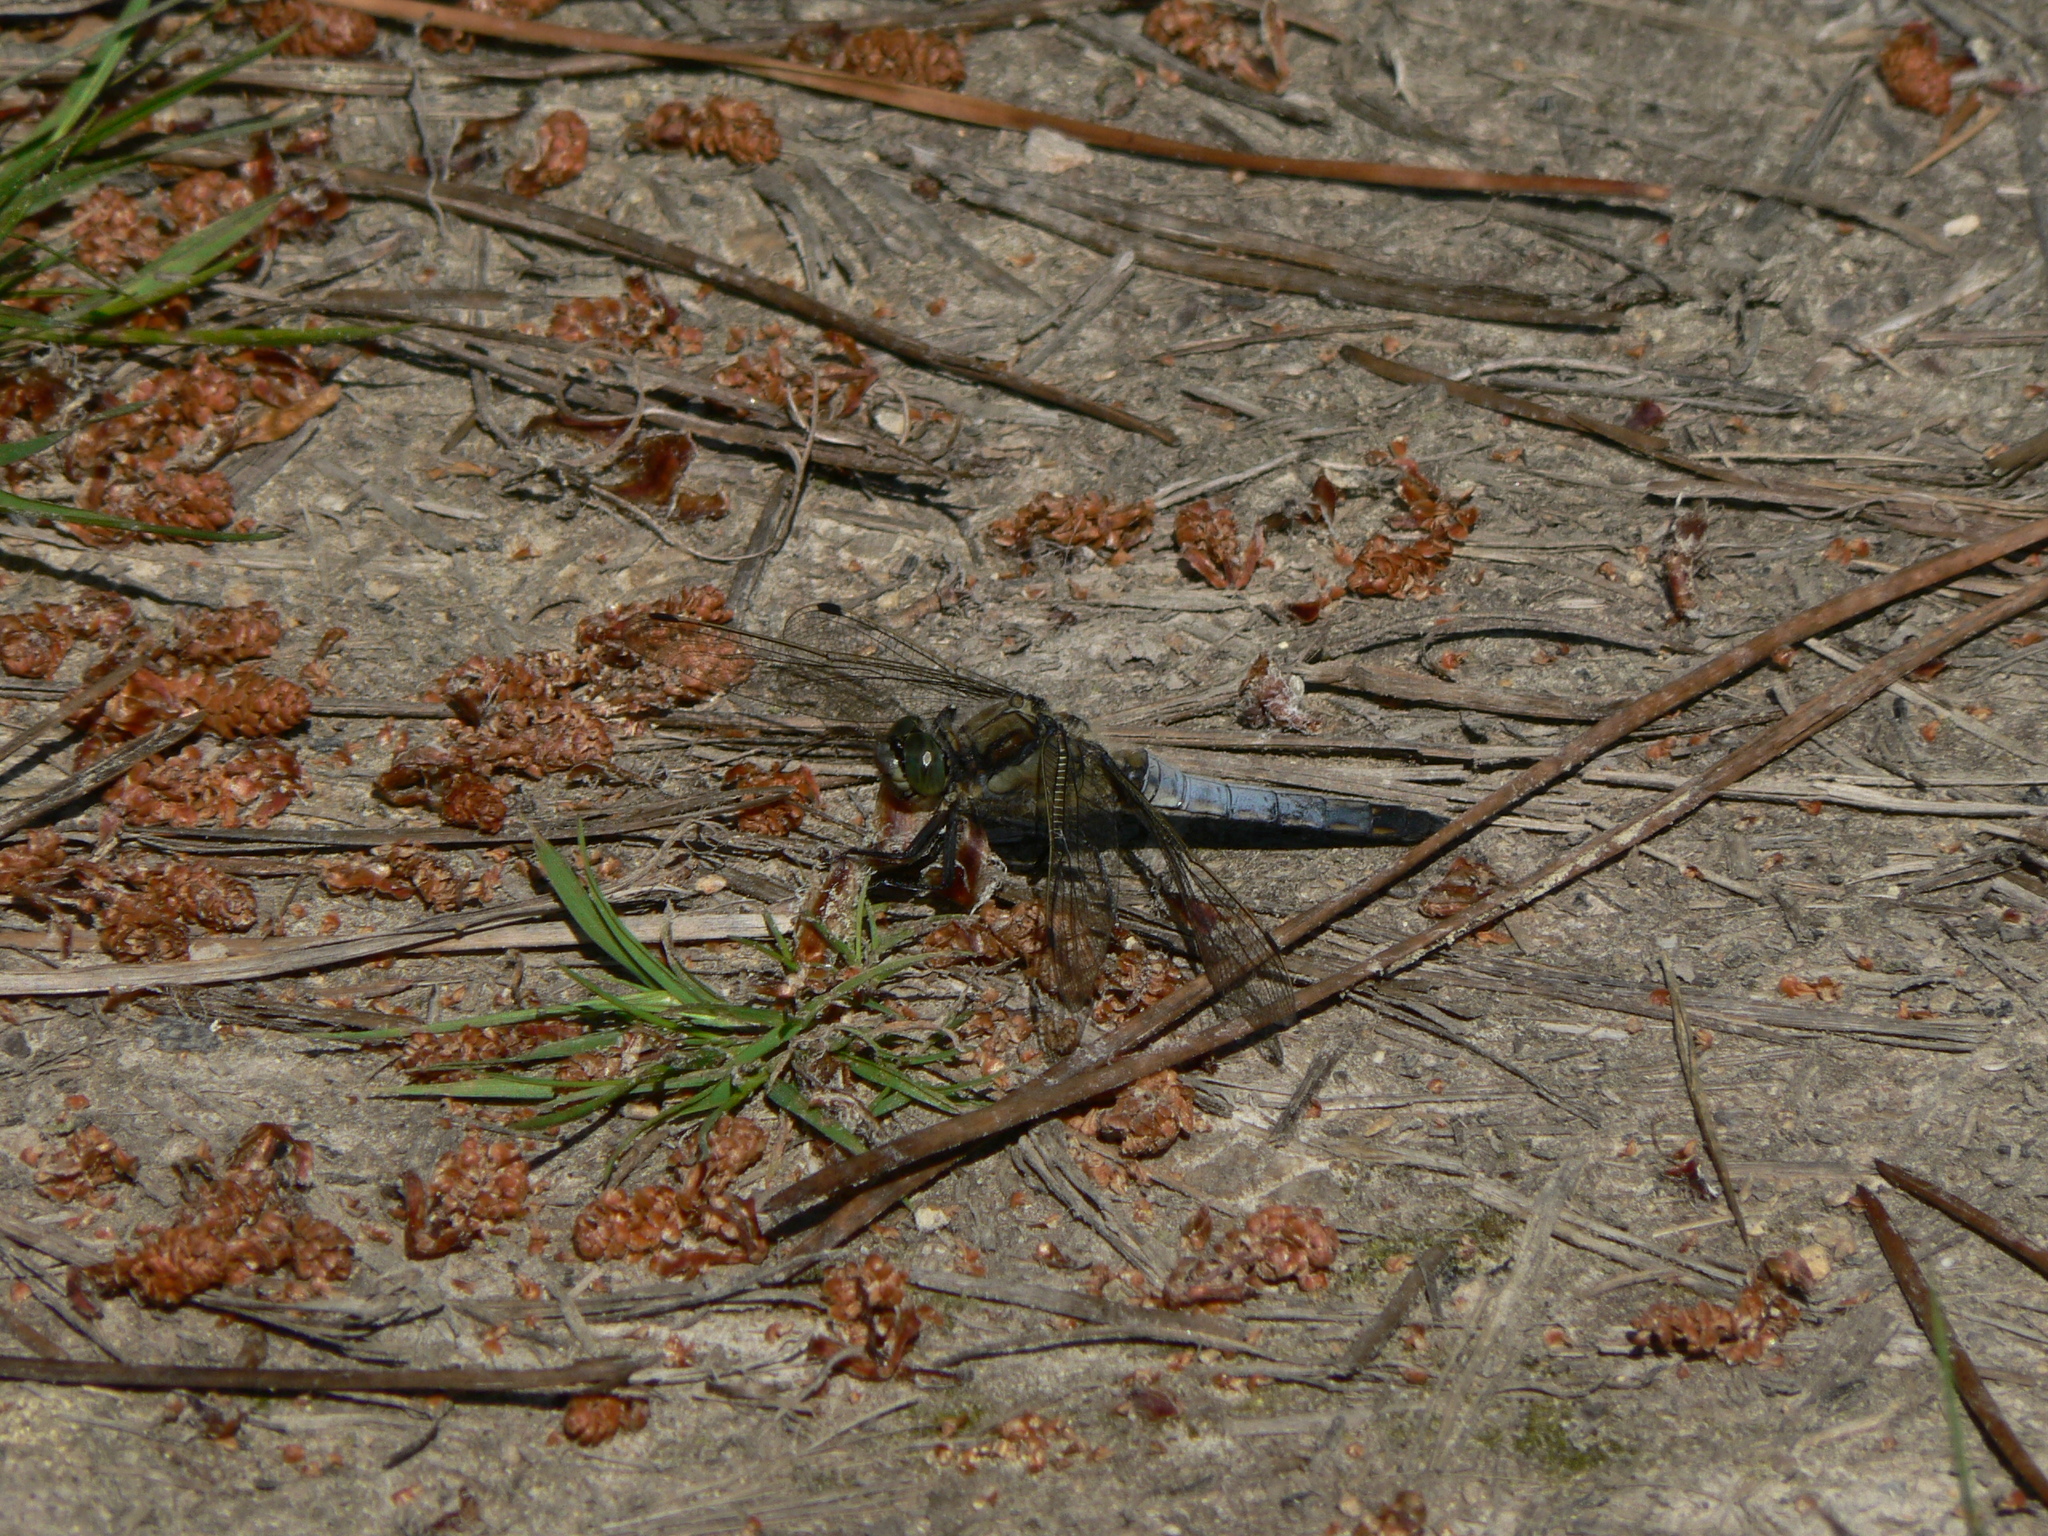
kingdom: Animalia
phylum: Arthropoda
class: Insecta
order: Odonata
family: Libellulidae
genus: Orthetrum
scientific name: Orthetrum cancellatum
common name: Black-tailed skimmer
